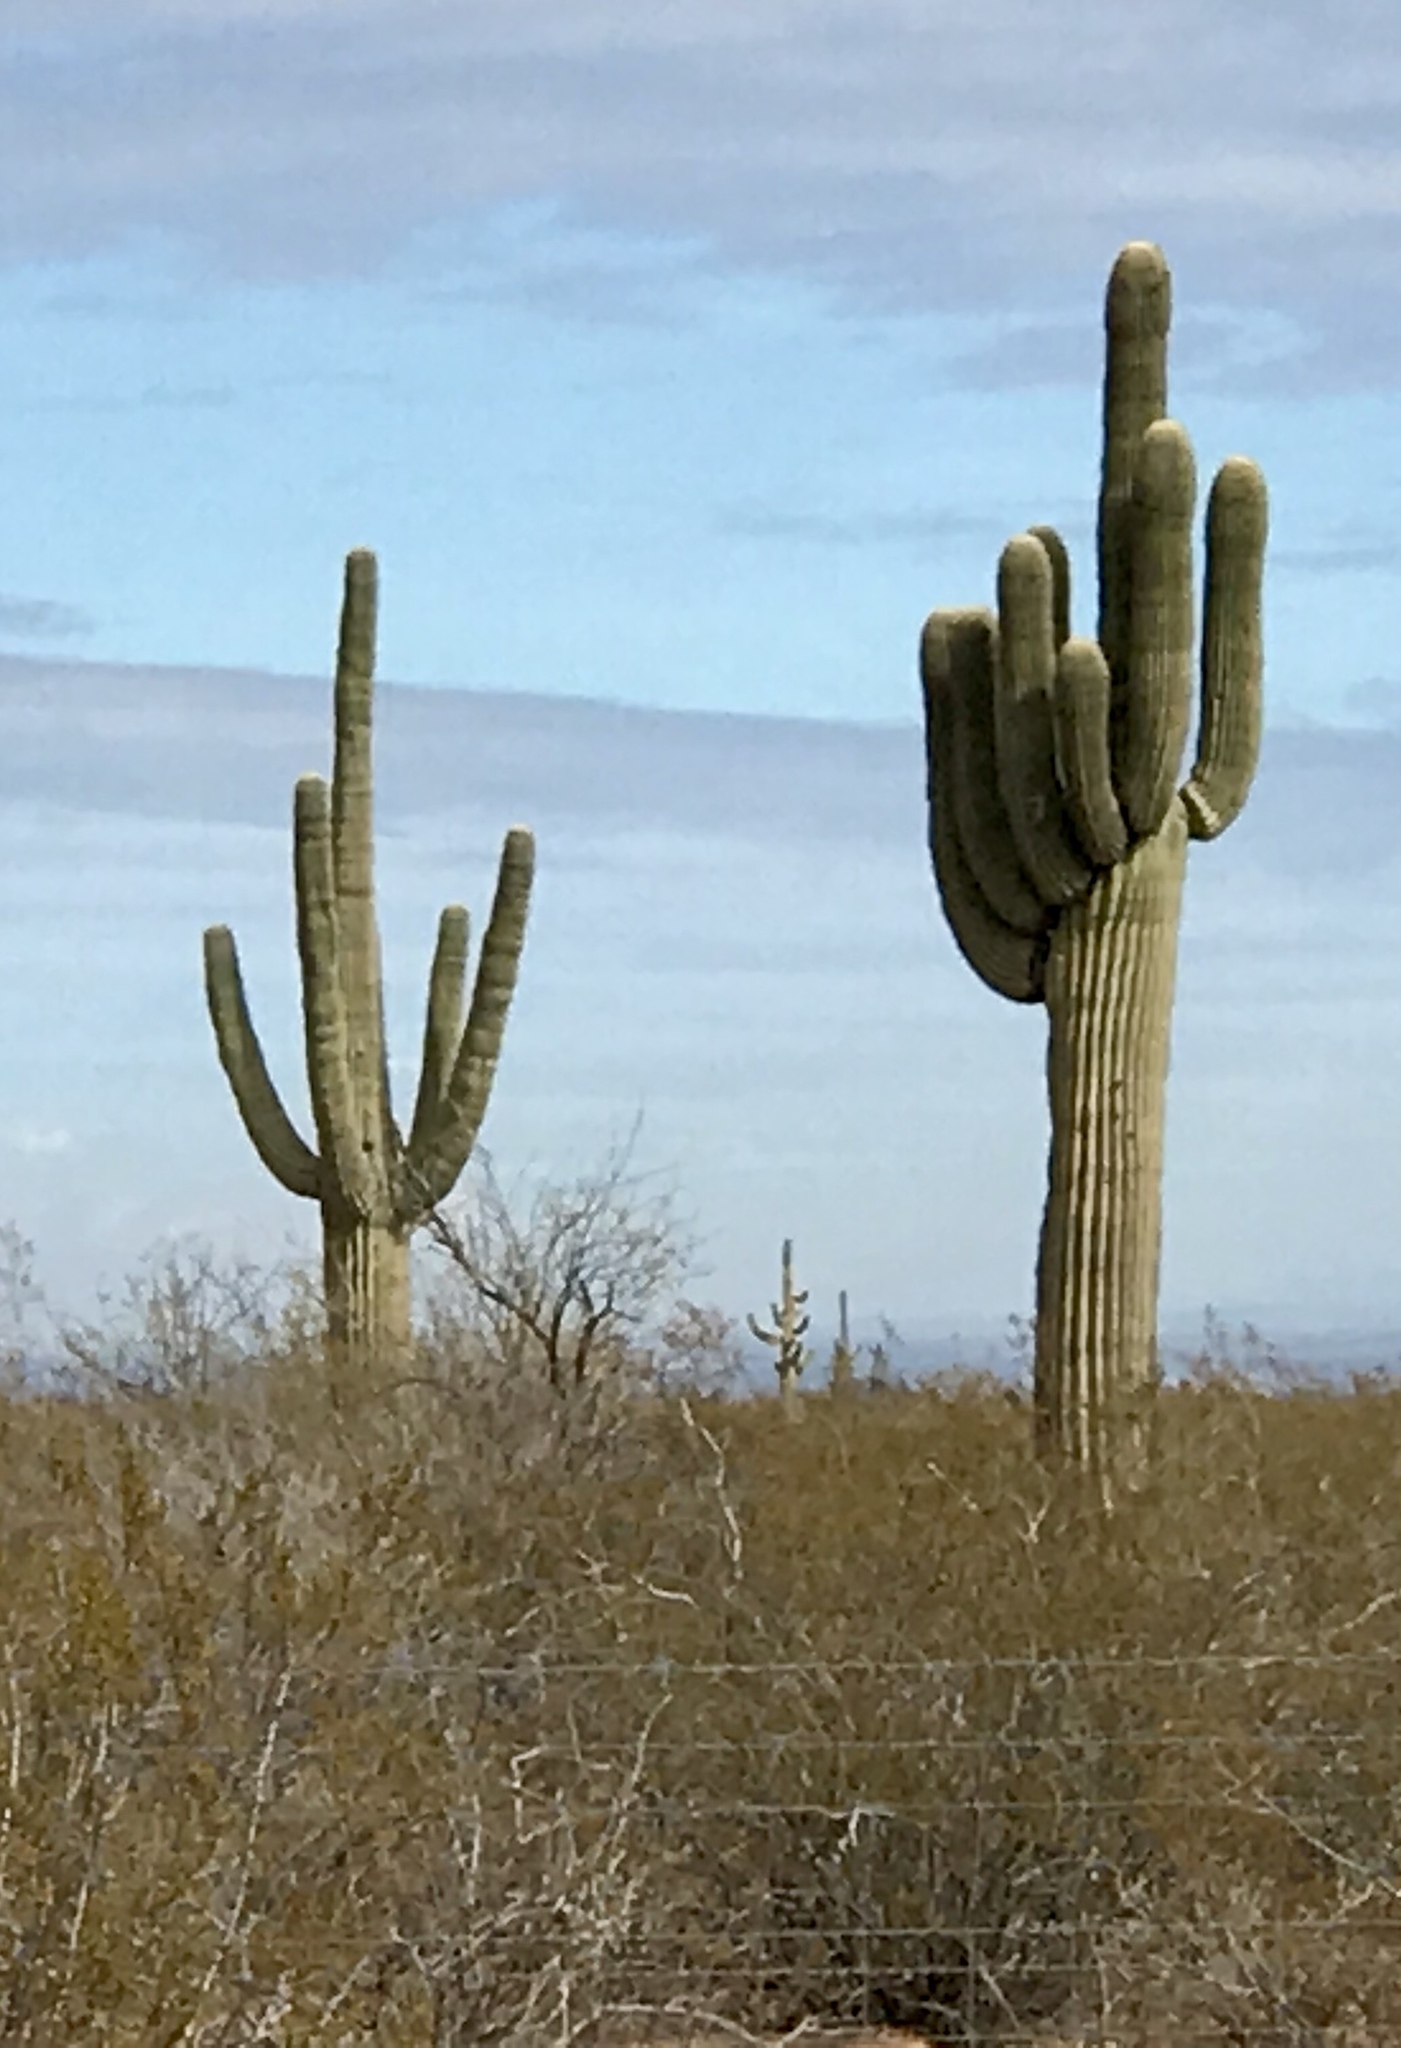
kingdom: Plantae
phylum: Tracheophyta
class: Magnoliopsida
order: Caryophyllales
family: Cactaceae
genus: Carnegiea
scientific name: Carnegiea gigantea
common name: Saguaro
